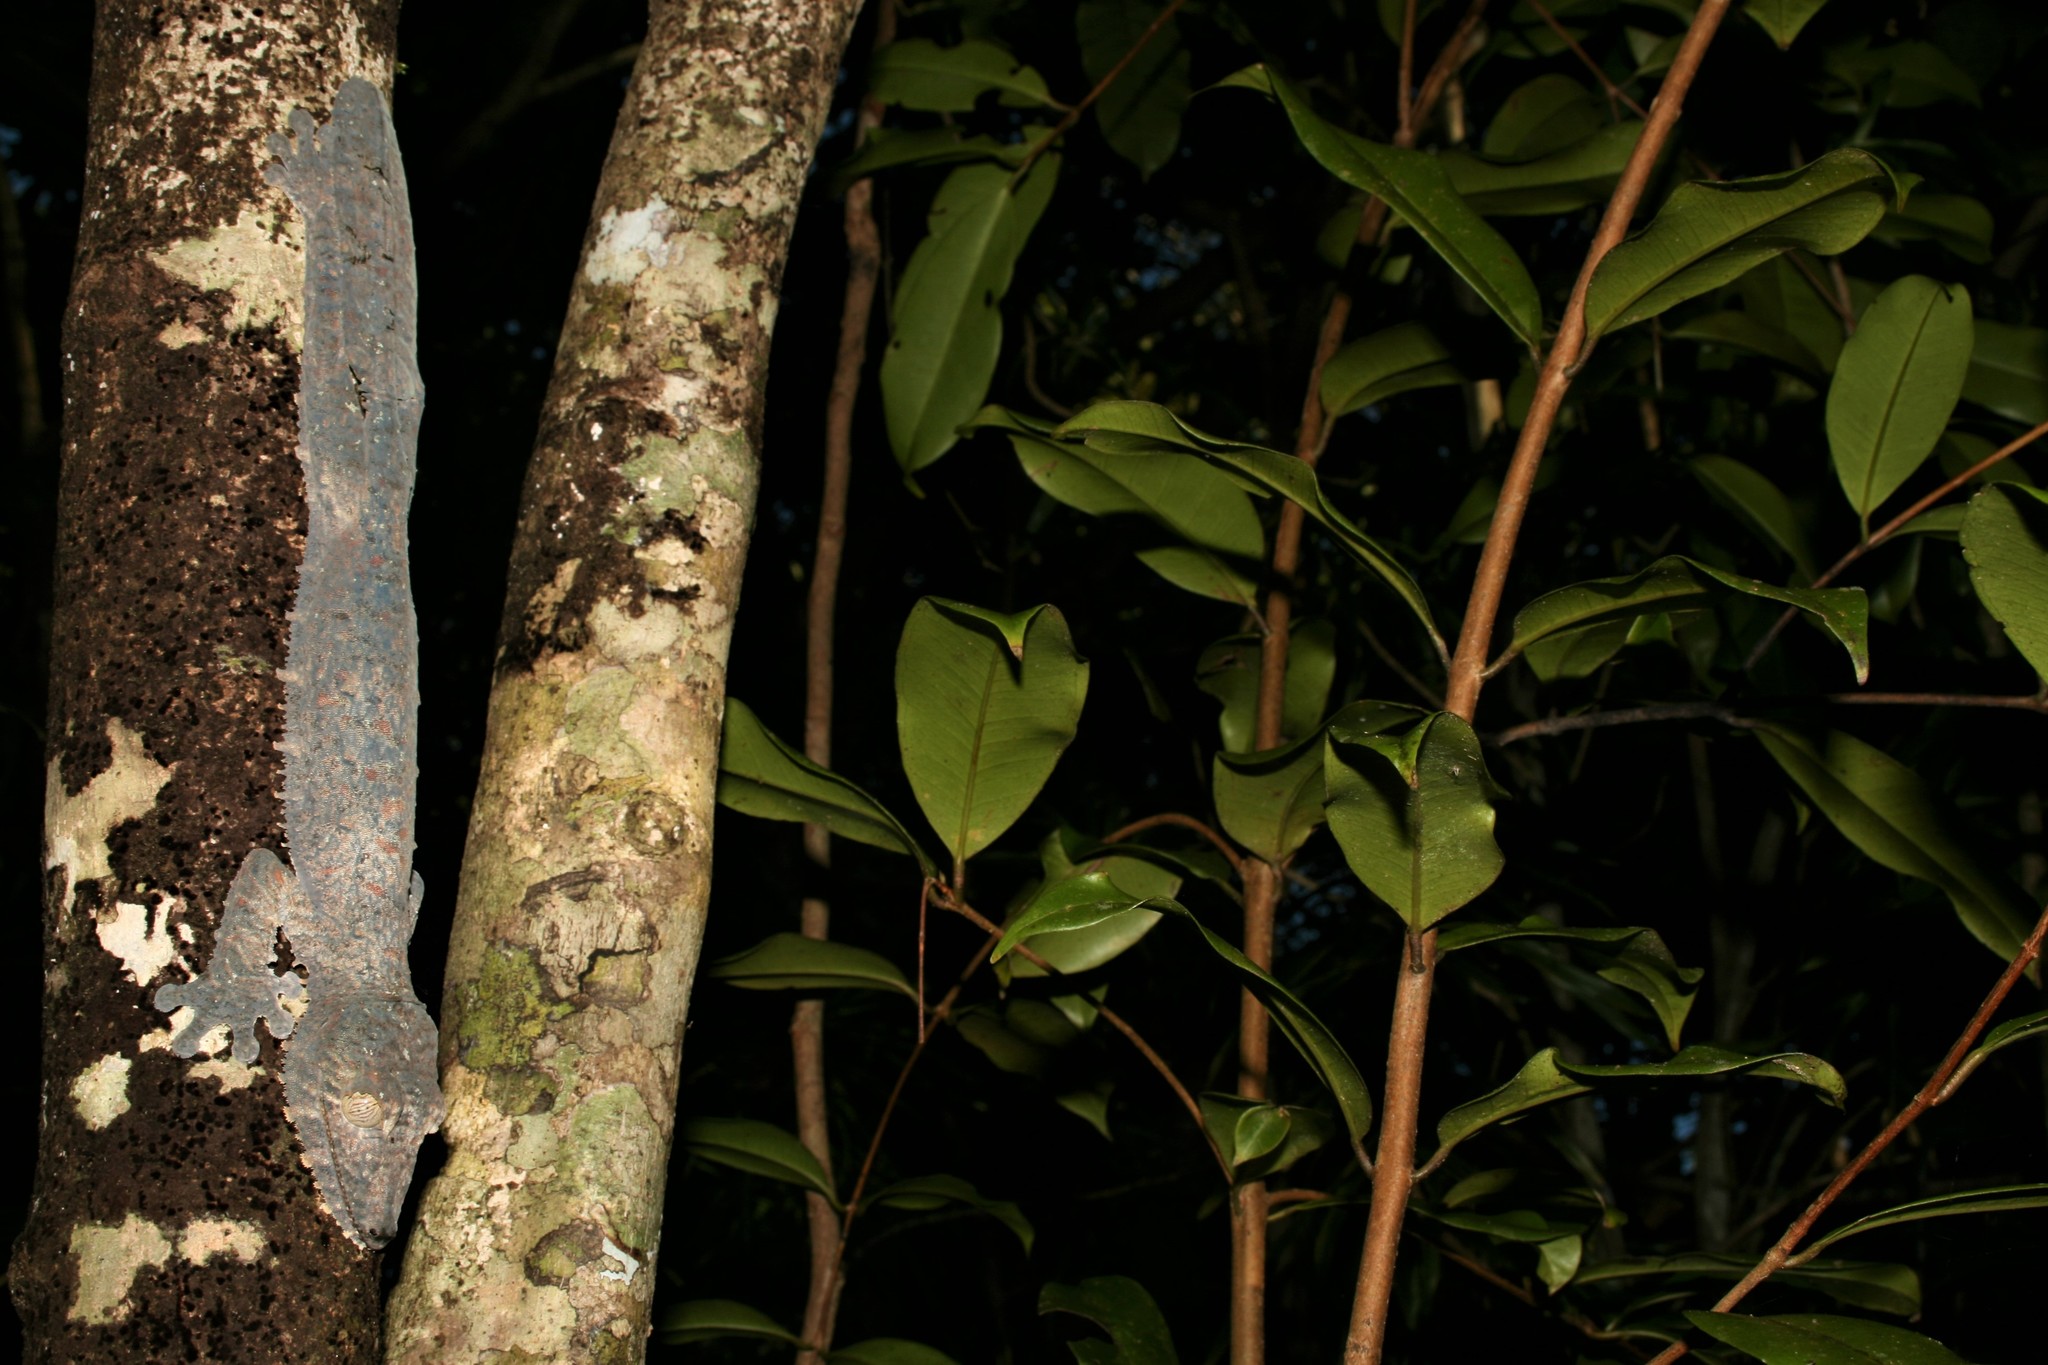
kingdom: Animalia
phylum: Chordata
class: Squamata
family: Gekkonidae
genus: Uroplatus
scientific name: Uroplatus fimbriatus
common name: Common flat-tail gecko
